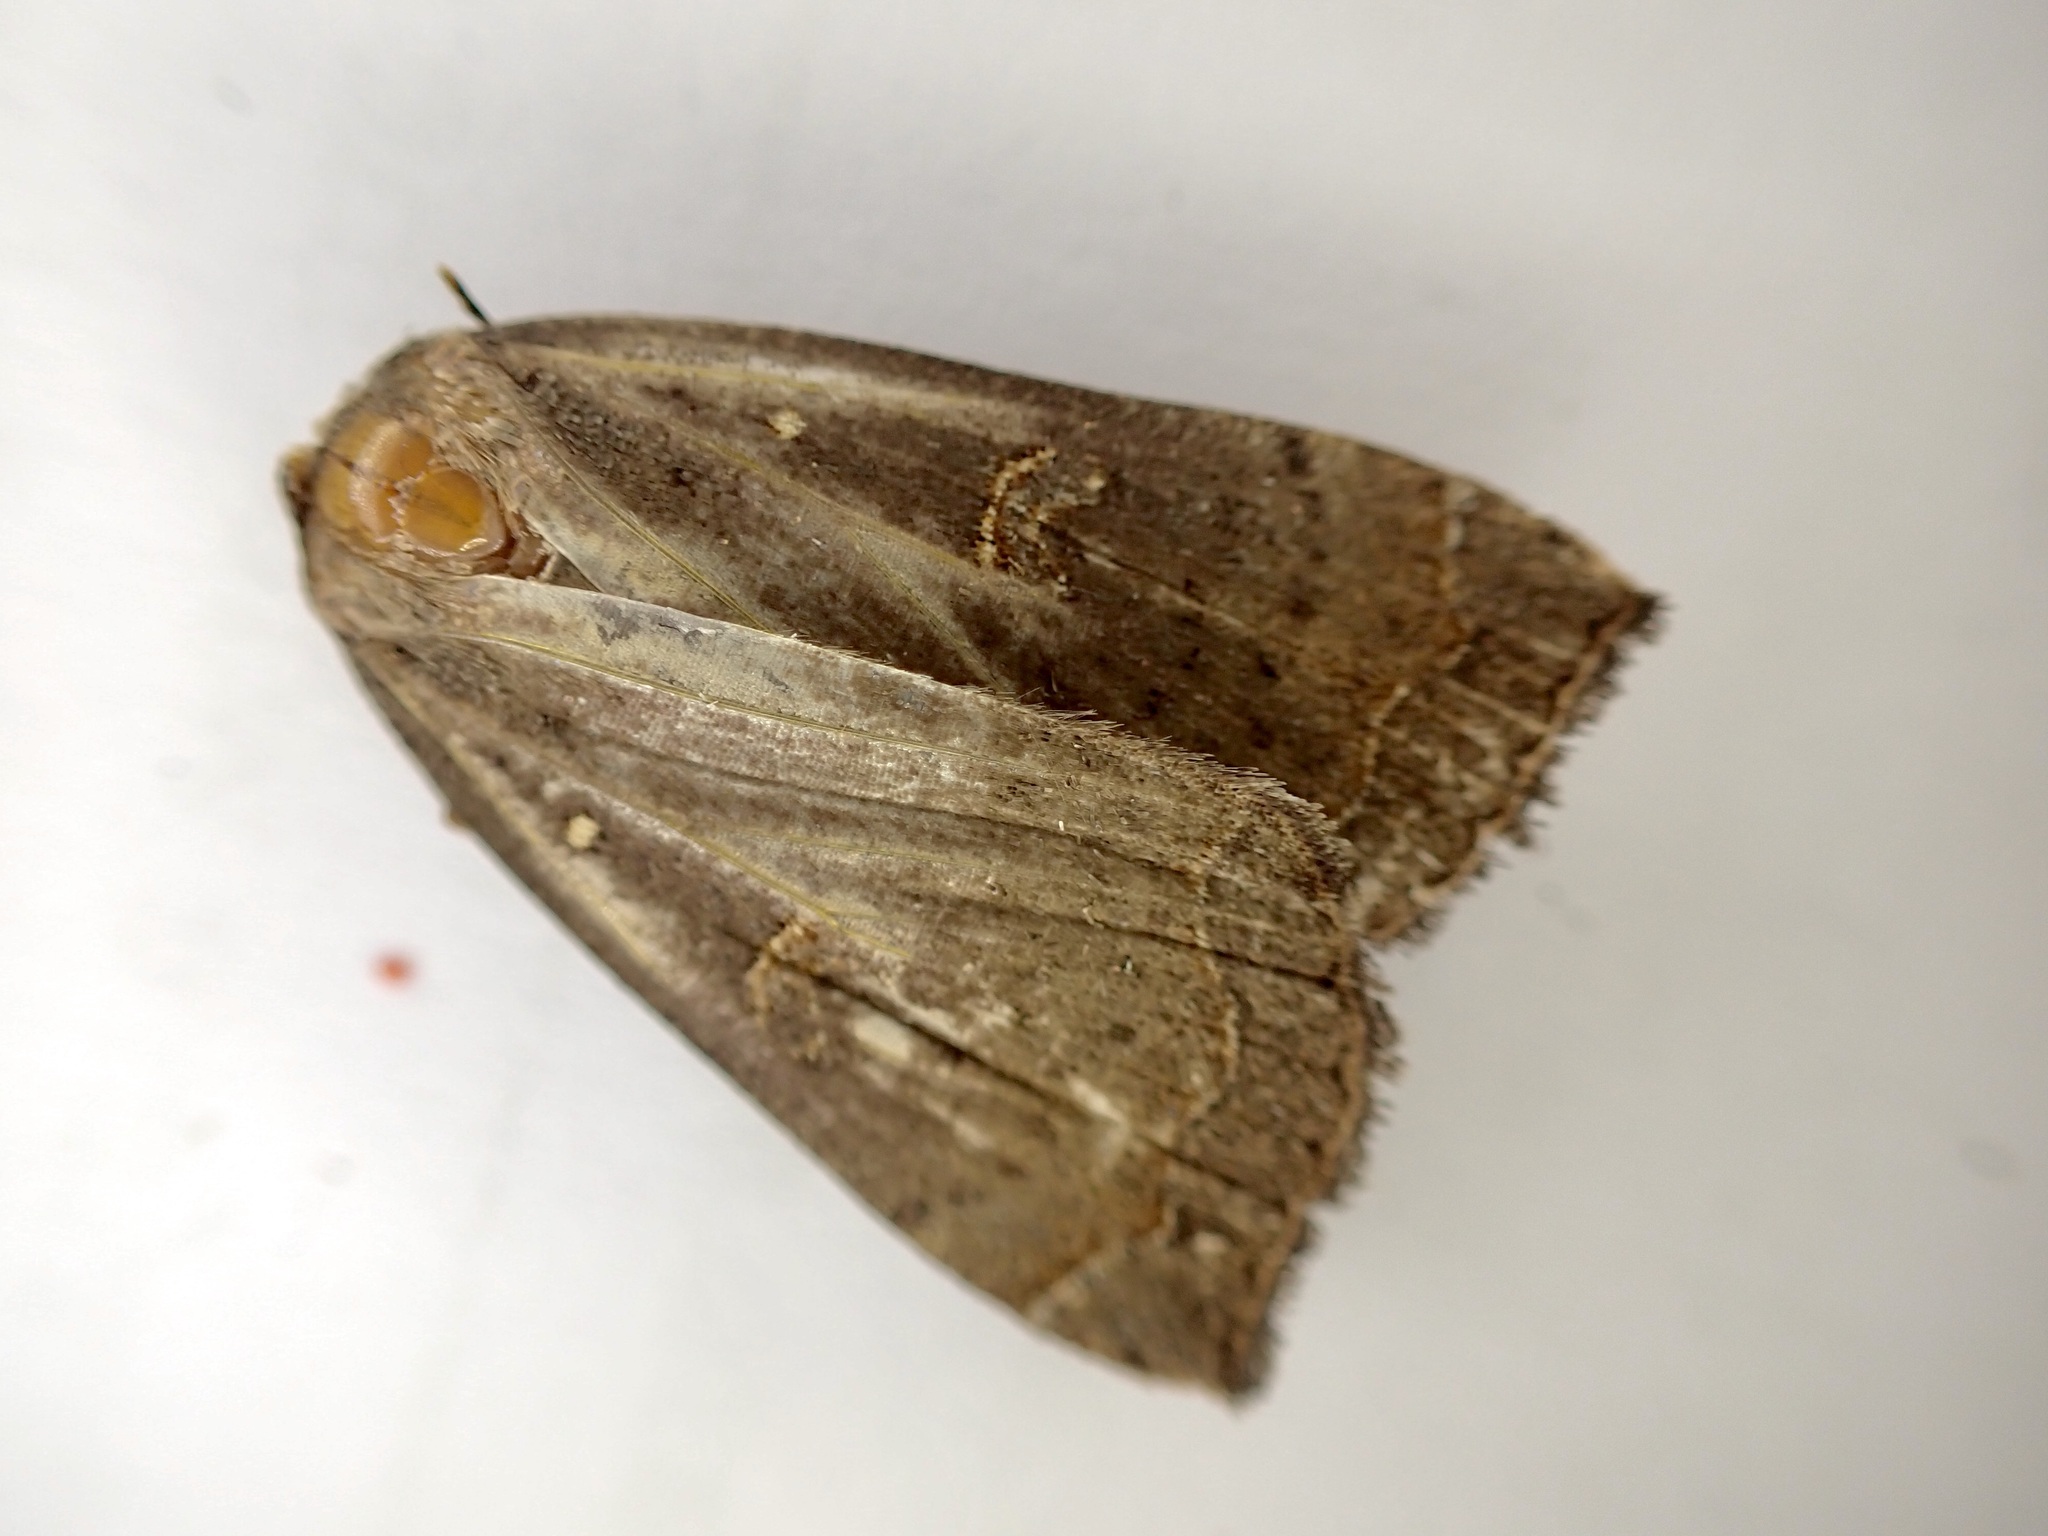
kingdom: Animalia
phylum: Arthropoda
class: Insecta
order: Lepidoptera
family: Erebidae
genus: Rhapsa
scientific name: Rhapsa scotosialis
